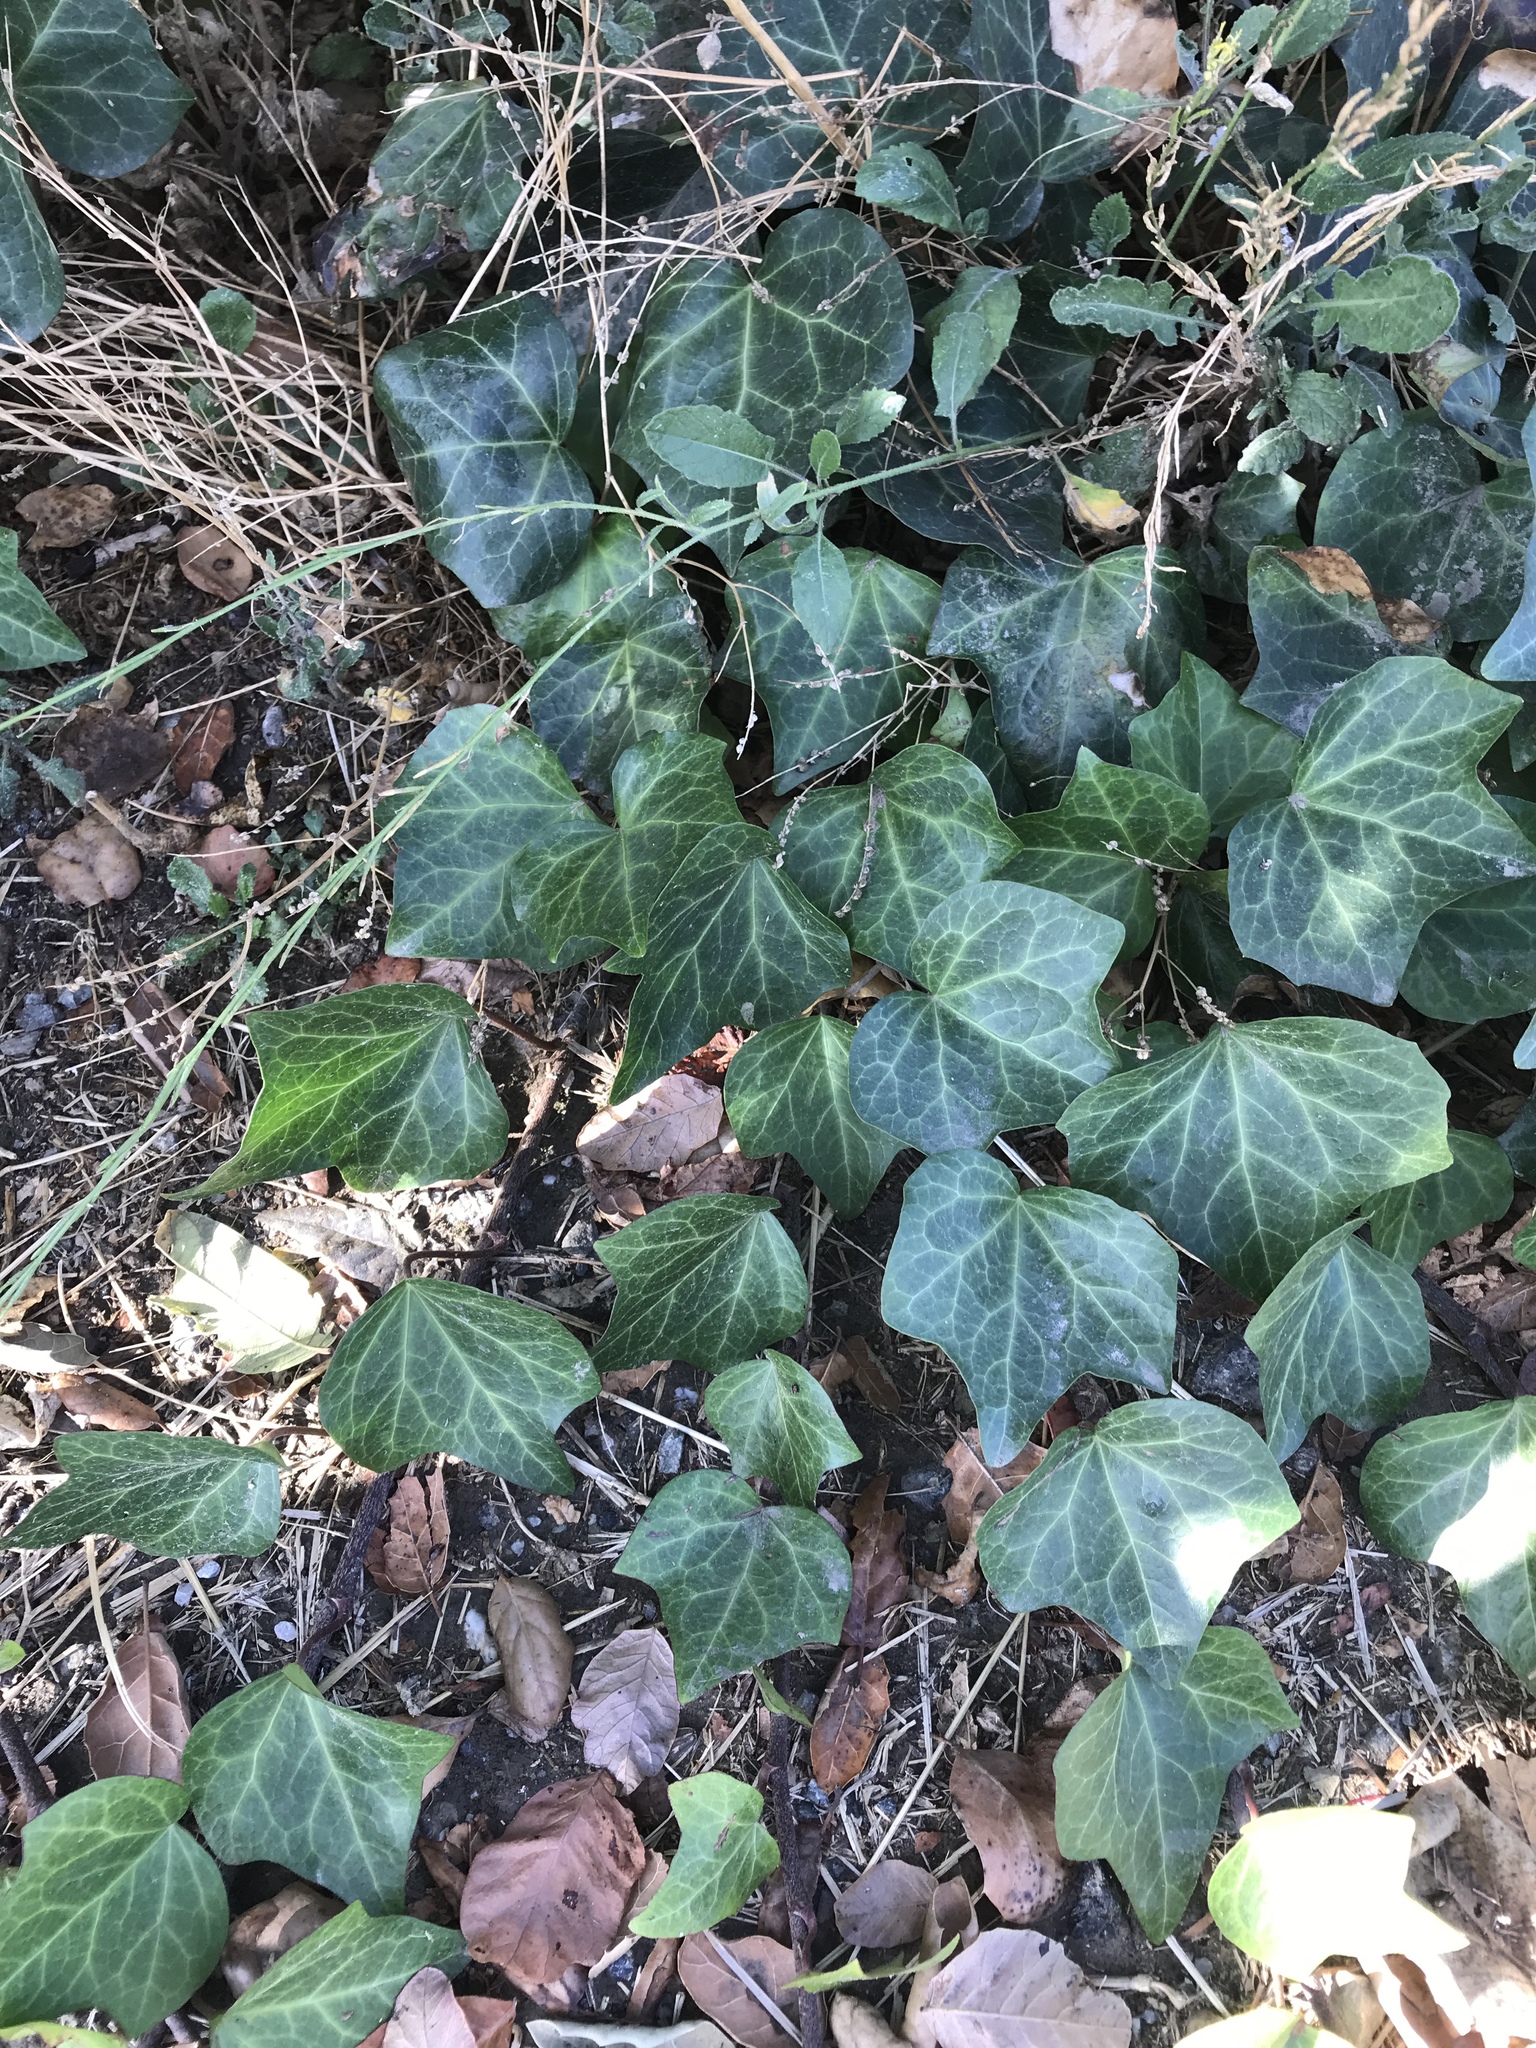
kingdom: Plantae
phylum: Tracheophyta
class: Magnoliopsida
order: Apiales
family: Araliaceae
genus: Hedera
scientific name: Hedera helix
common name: Ivy
